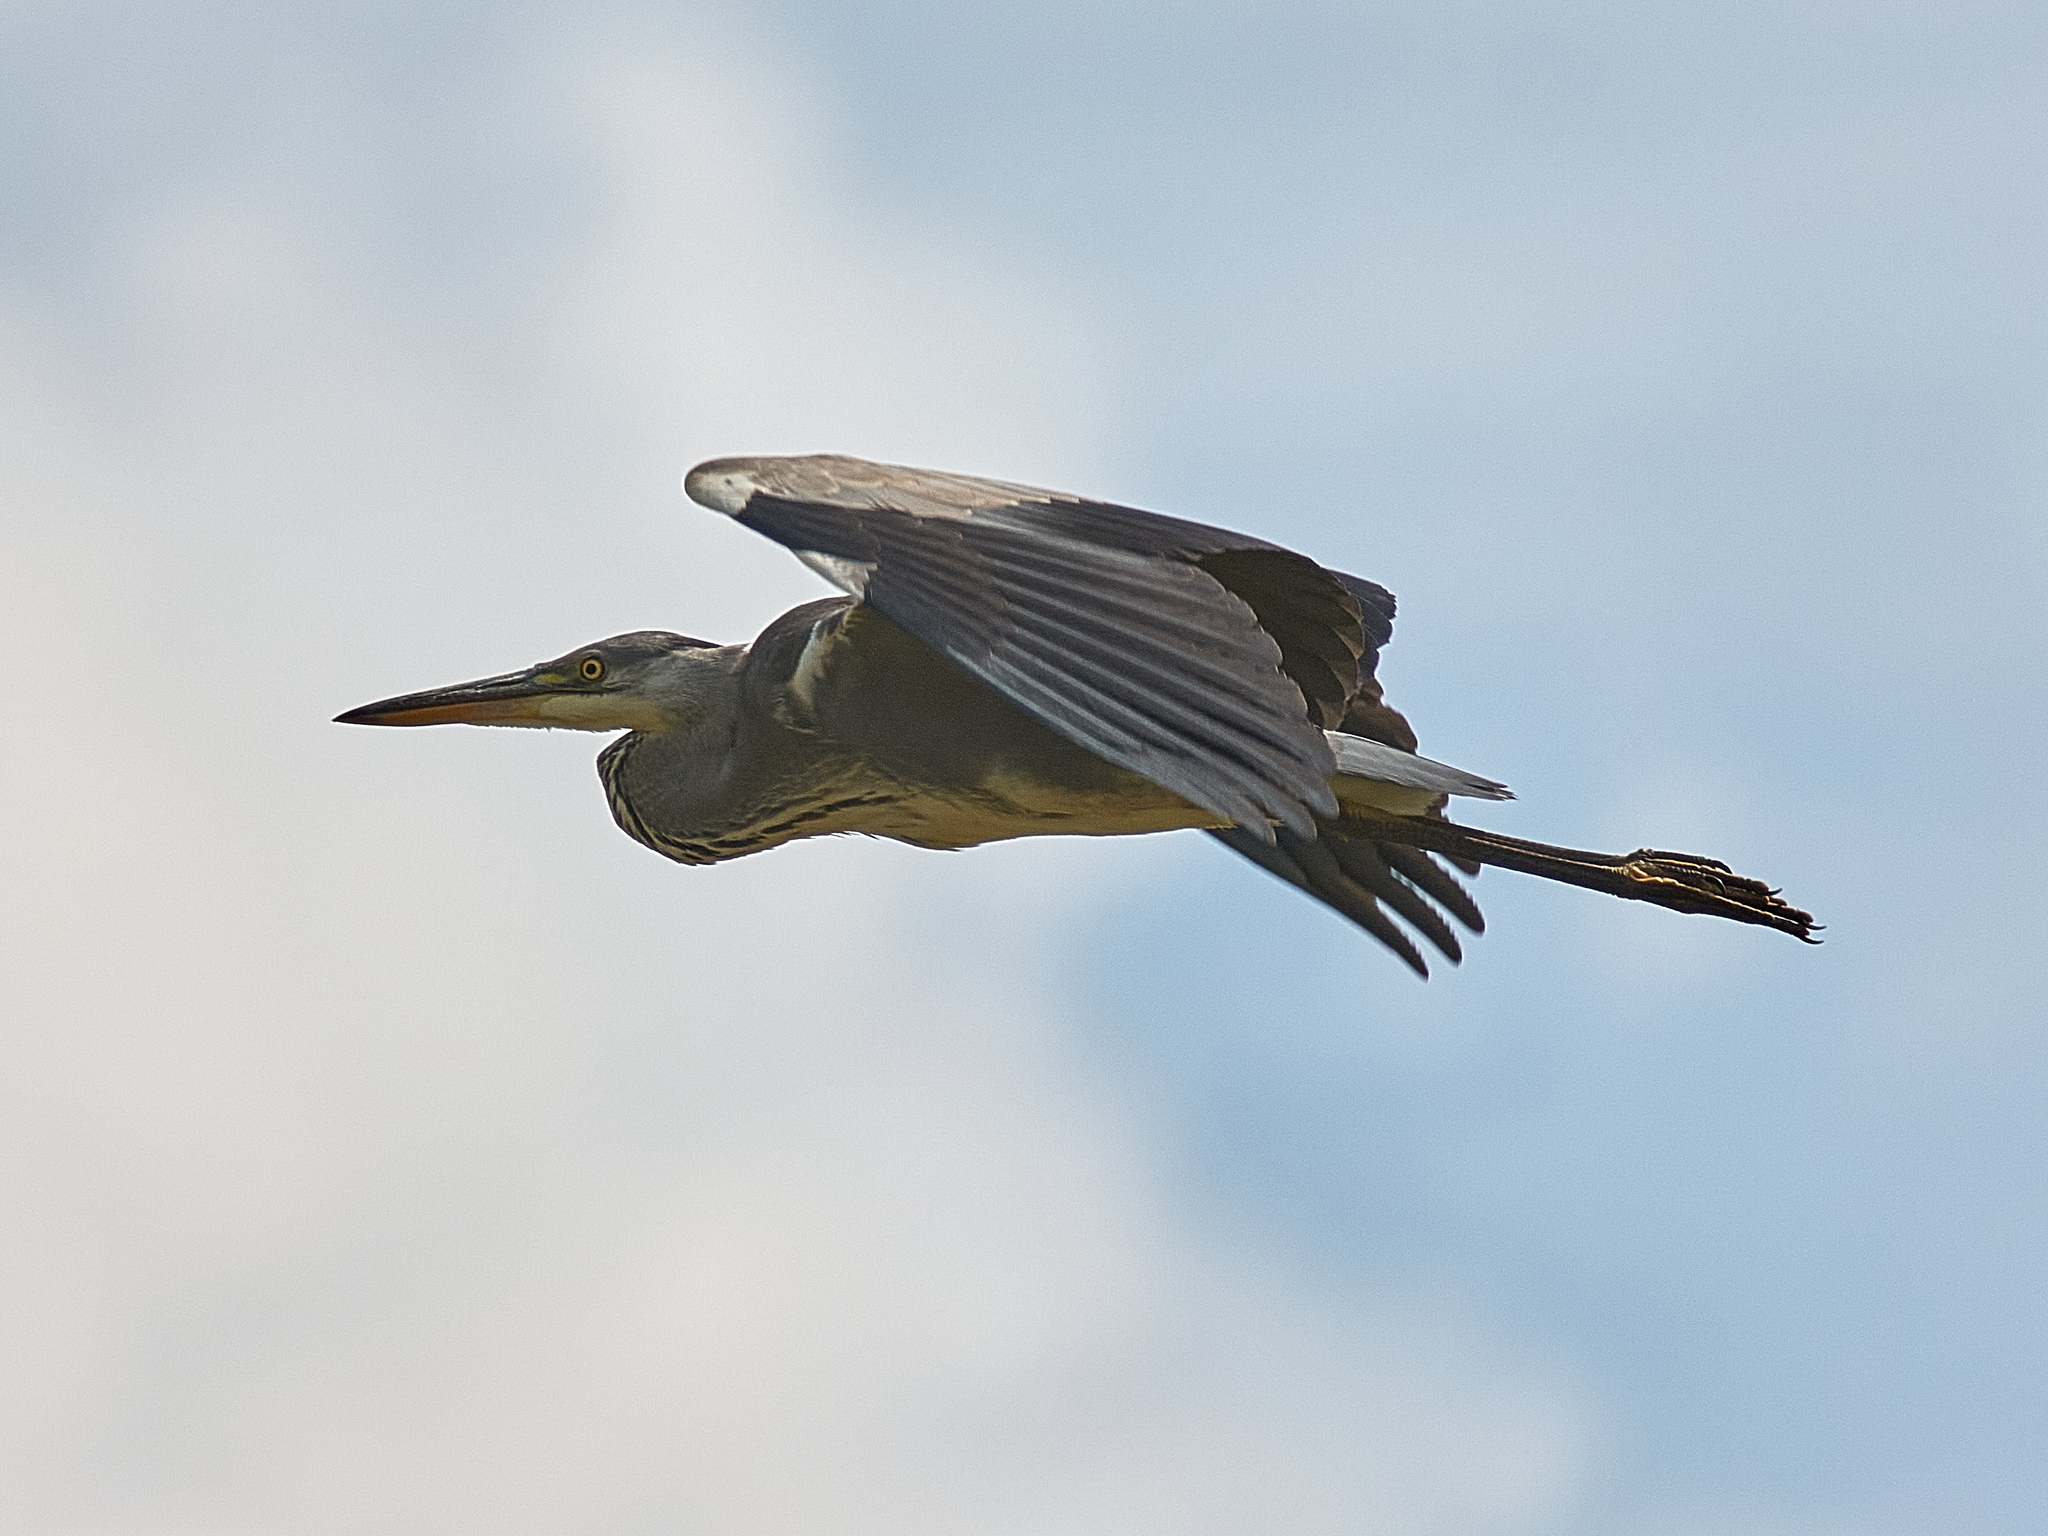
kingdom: Animalia
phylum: Chordata
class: Aves
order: Pelecaniformes
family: Ardeidae
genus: Ardea
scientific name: Ardea cinerea
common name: Grey heron
